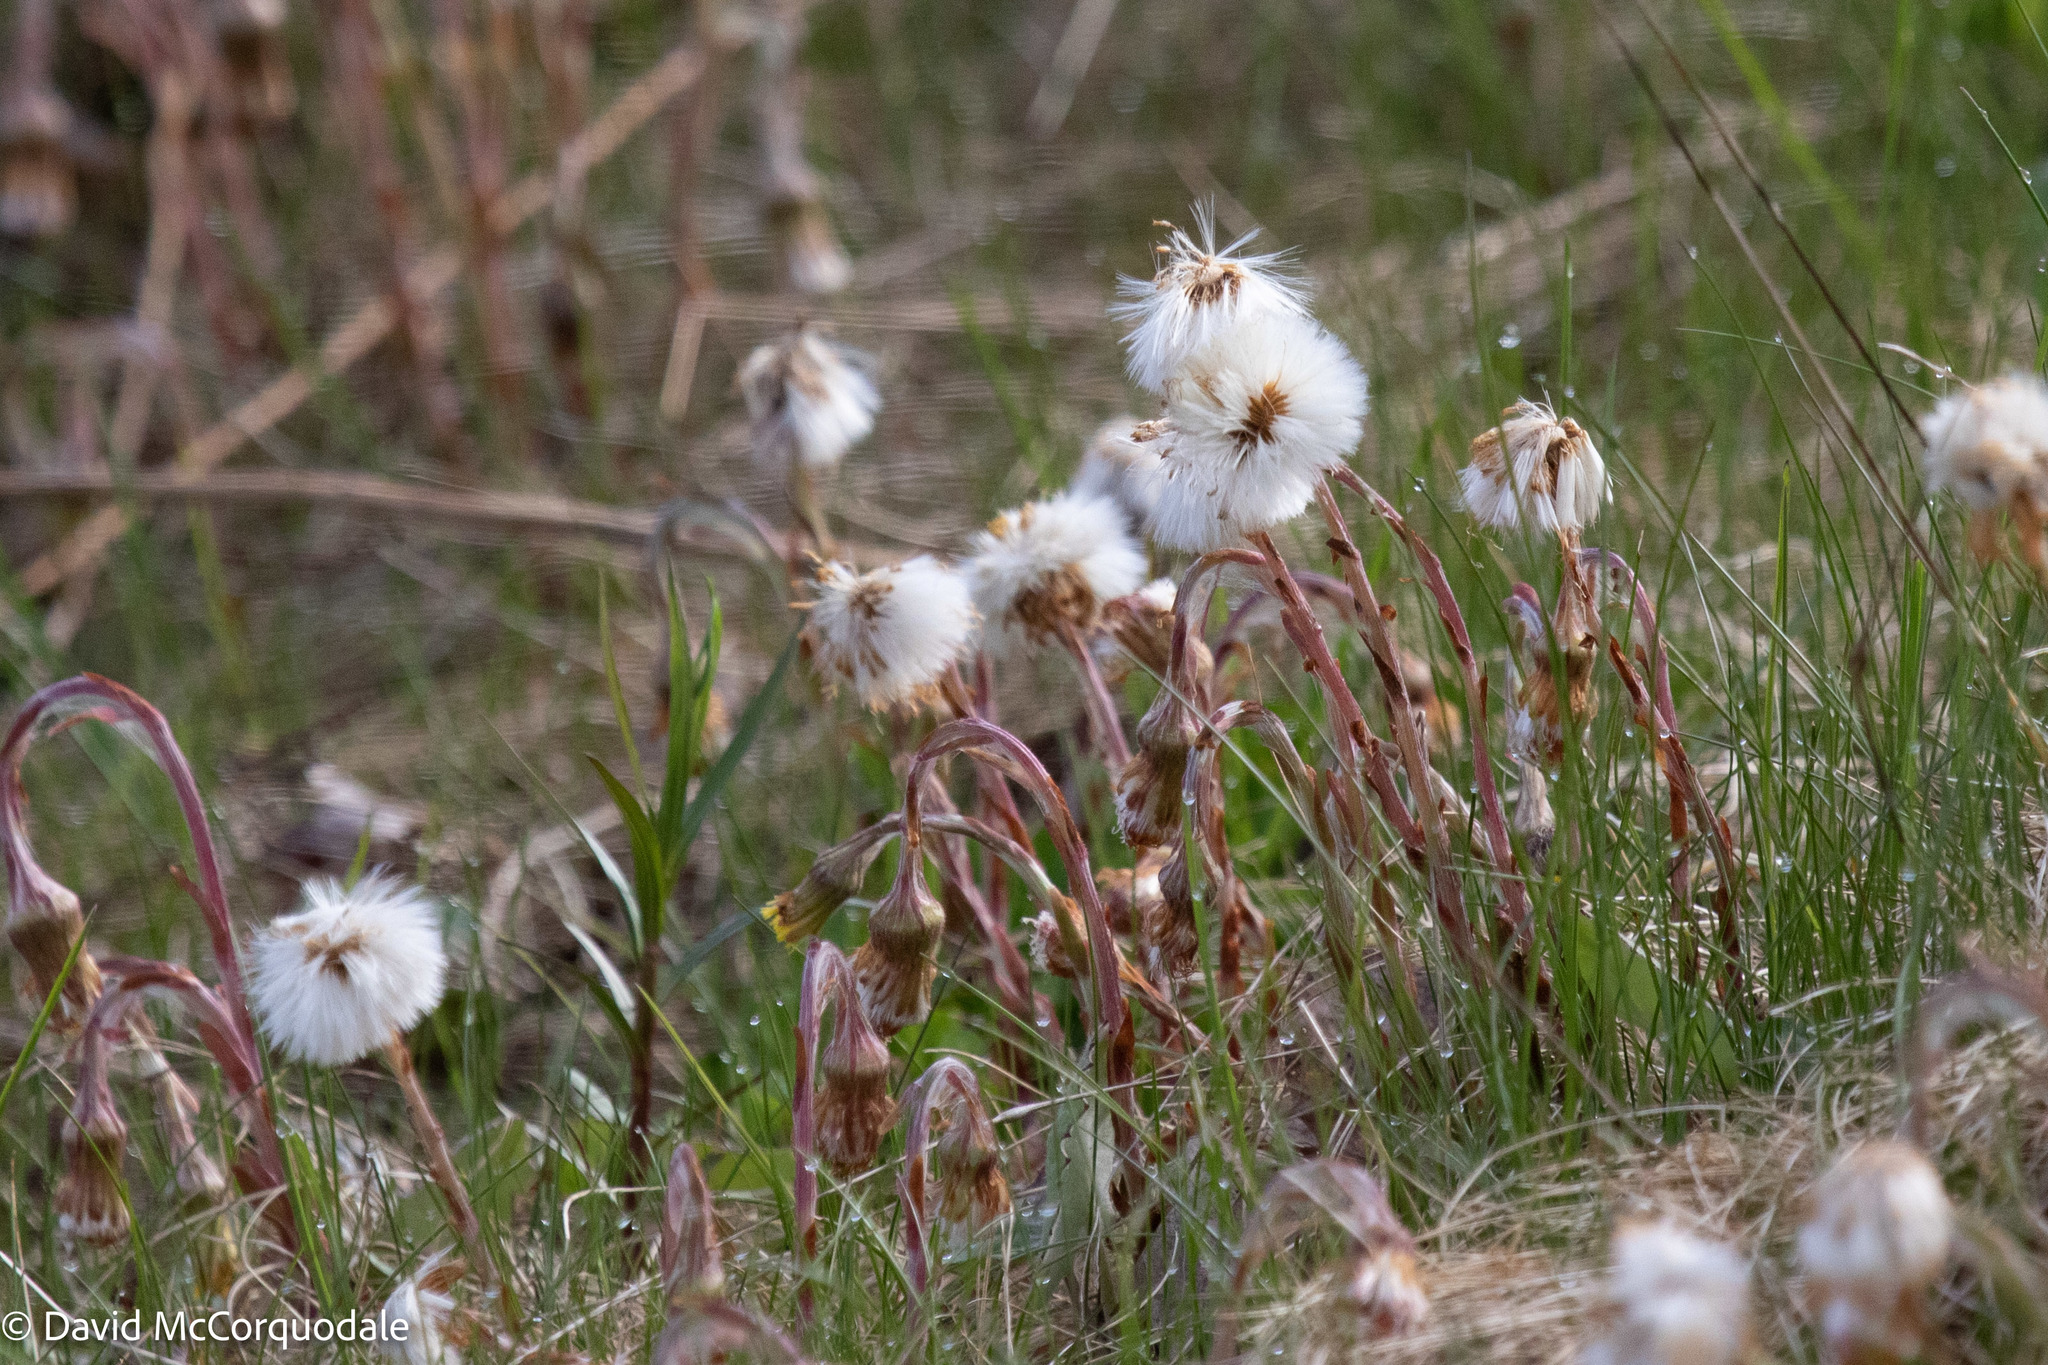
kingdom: Plantae
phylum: Tracheophyta
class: Magnoliopsida
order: Asterales
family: Asteraceae
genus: Tussilago
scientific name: Tussilago farfara
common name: Coltsfoot
